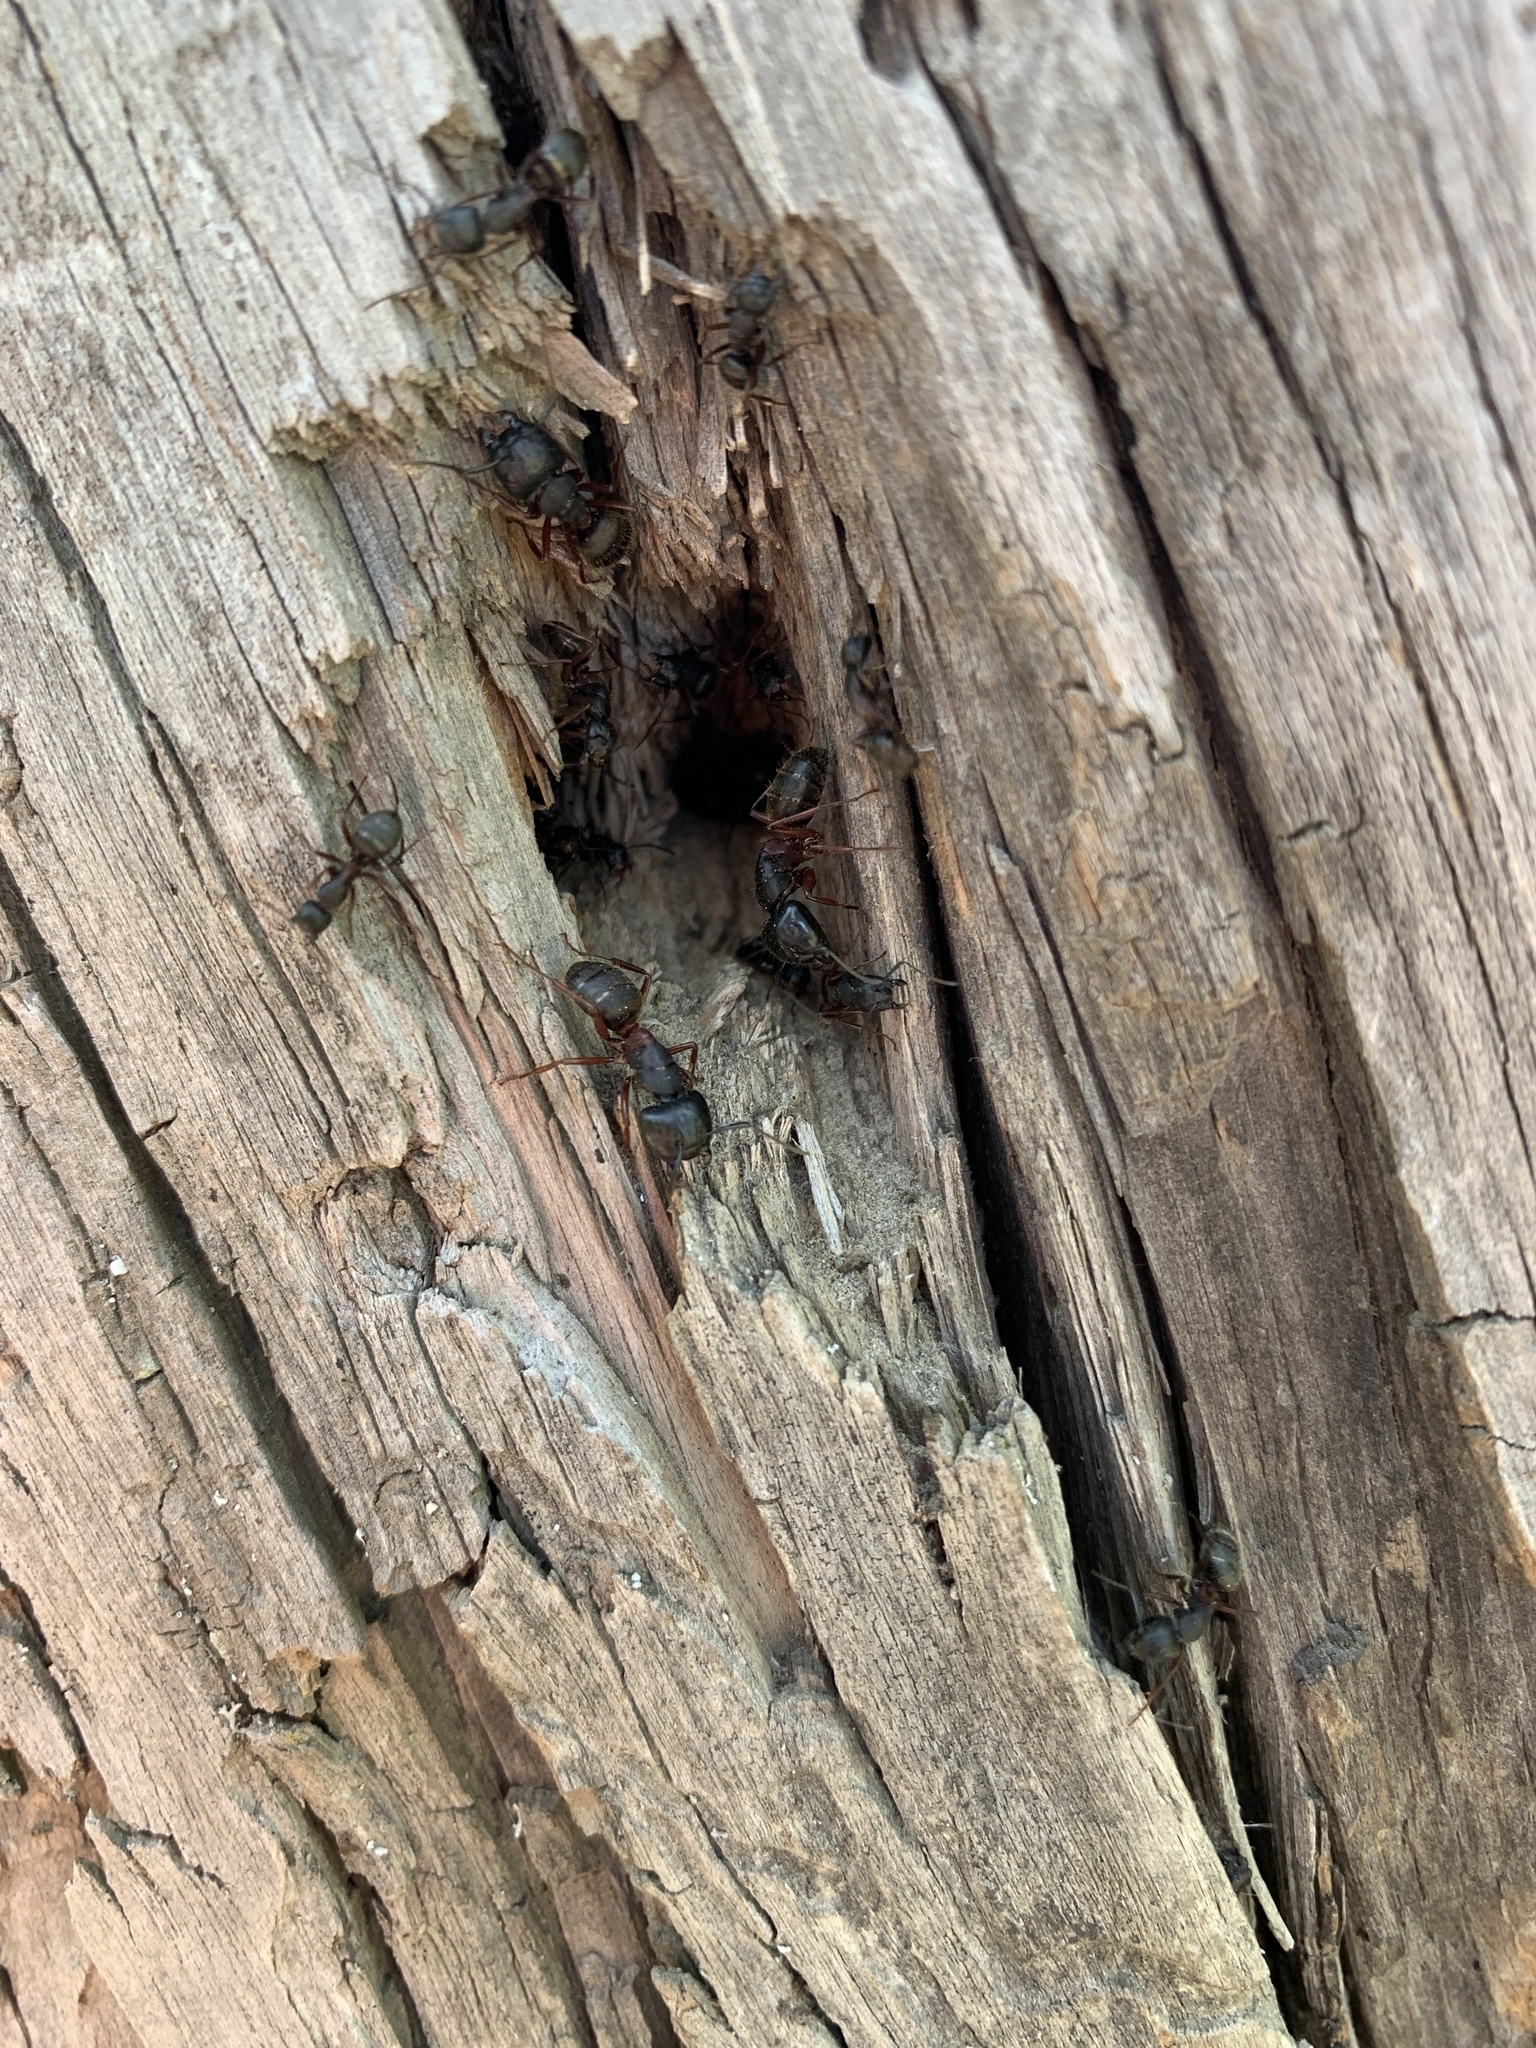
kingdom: Animalia
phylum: Arthropoda
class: Insecta
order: Hymenoptera
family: Formicidae
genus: Camponotus
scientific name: Camponotus herculeanus
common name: Hercules ant
